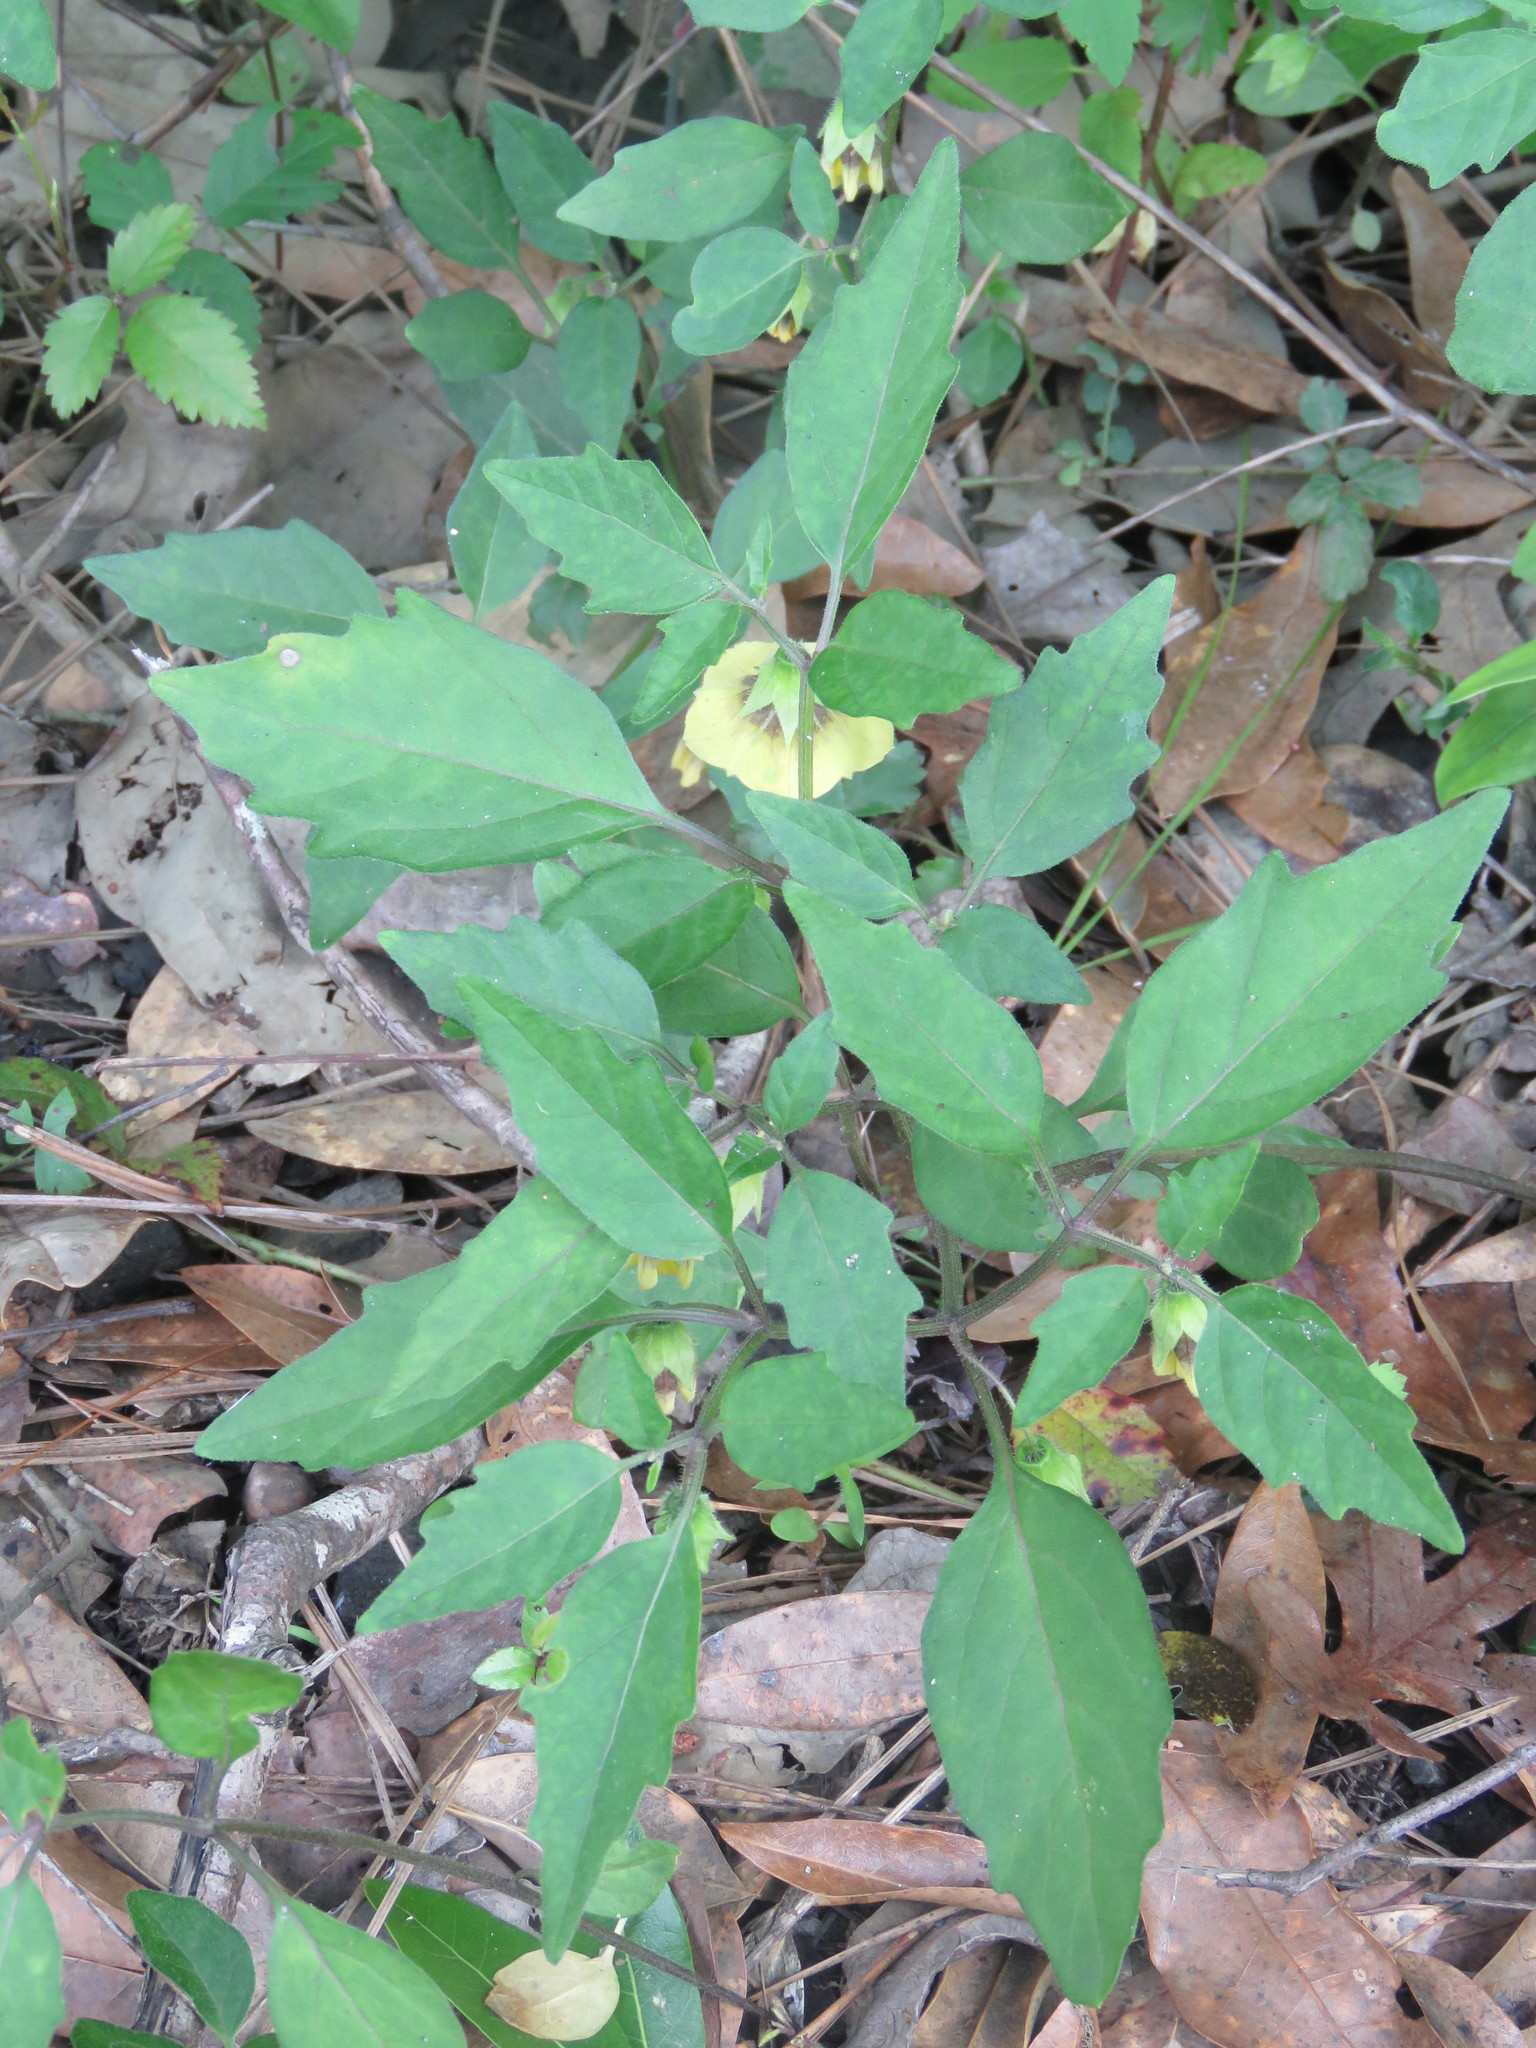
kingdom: Plantae
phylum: Tracheophyta
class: Magnoliopsida
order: Solanales
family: Solanaceae
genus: Physalis
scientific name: Physalis virginiana
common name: Virginia ground-cherry
